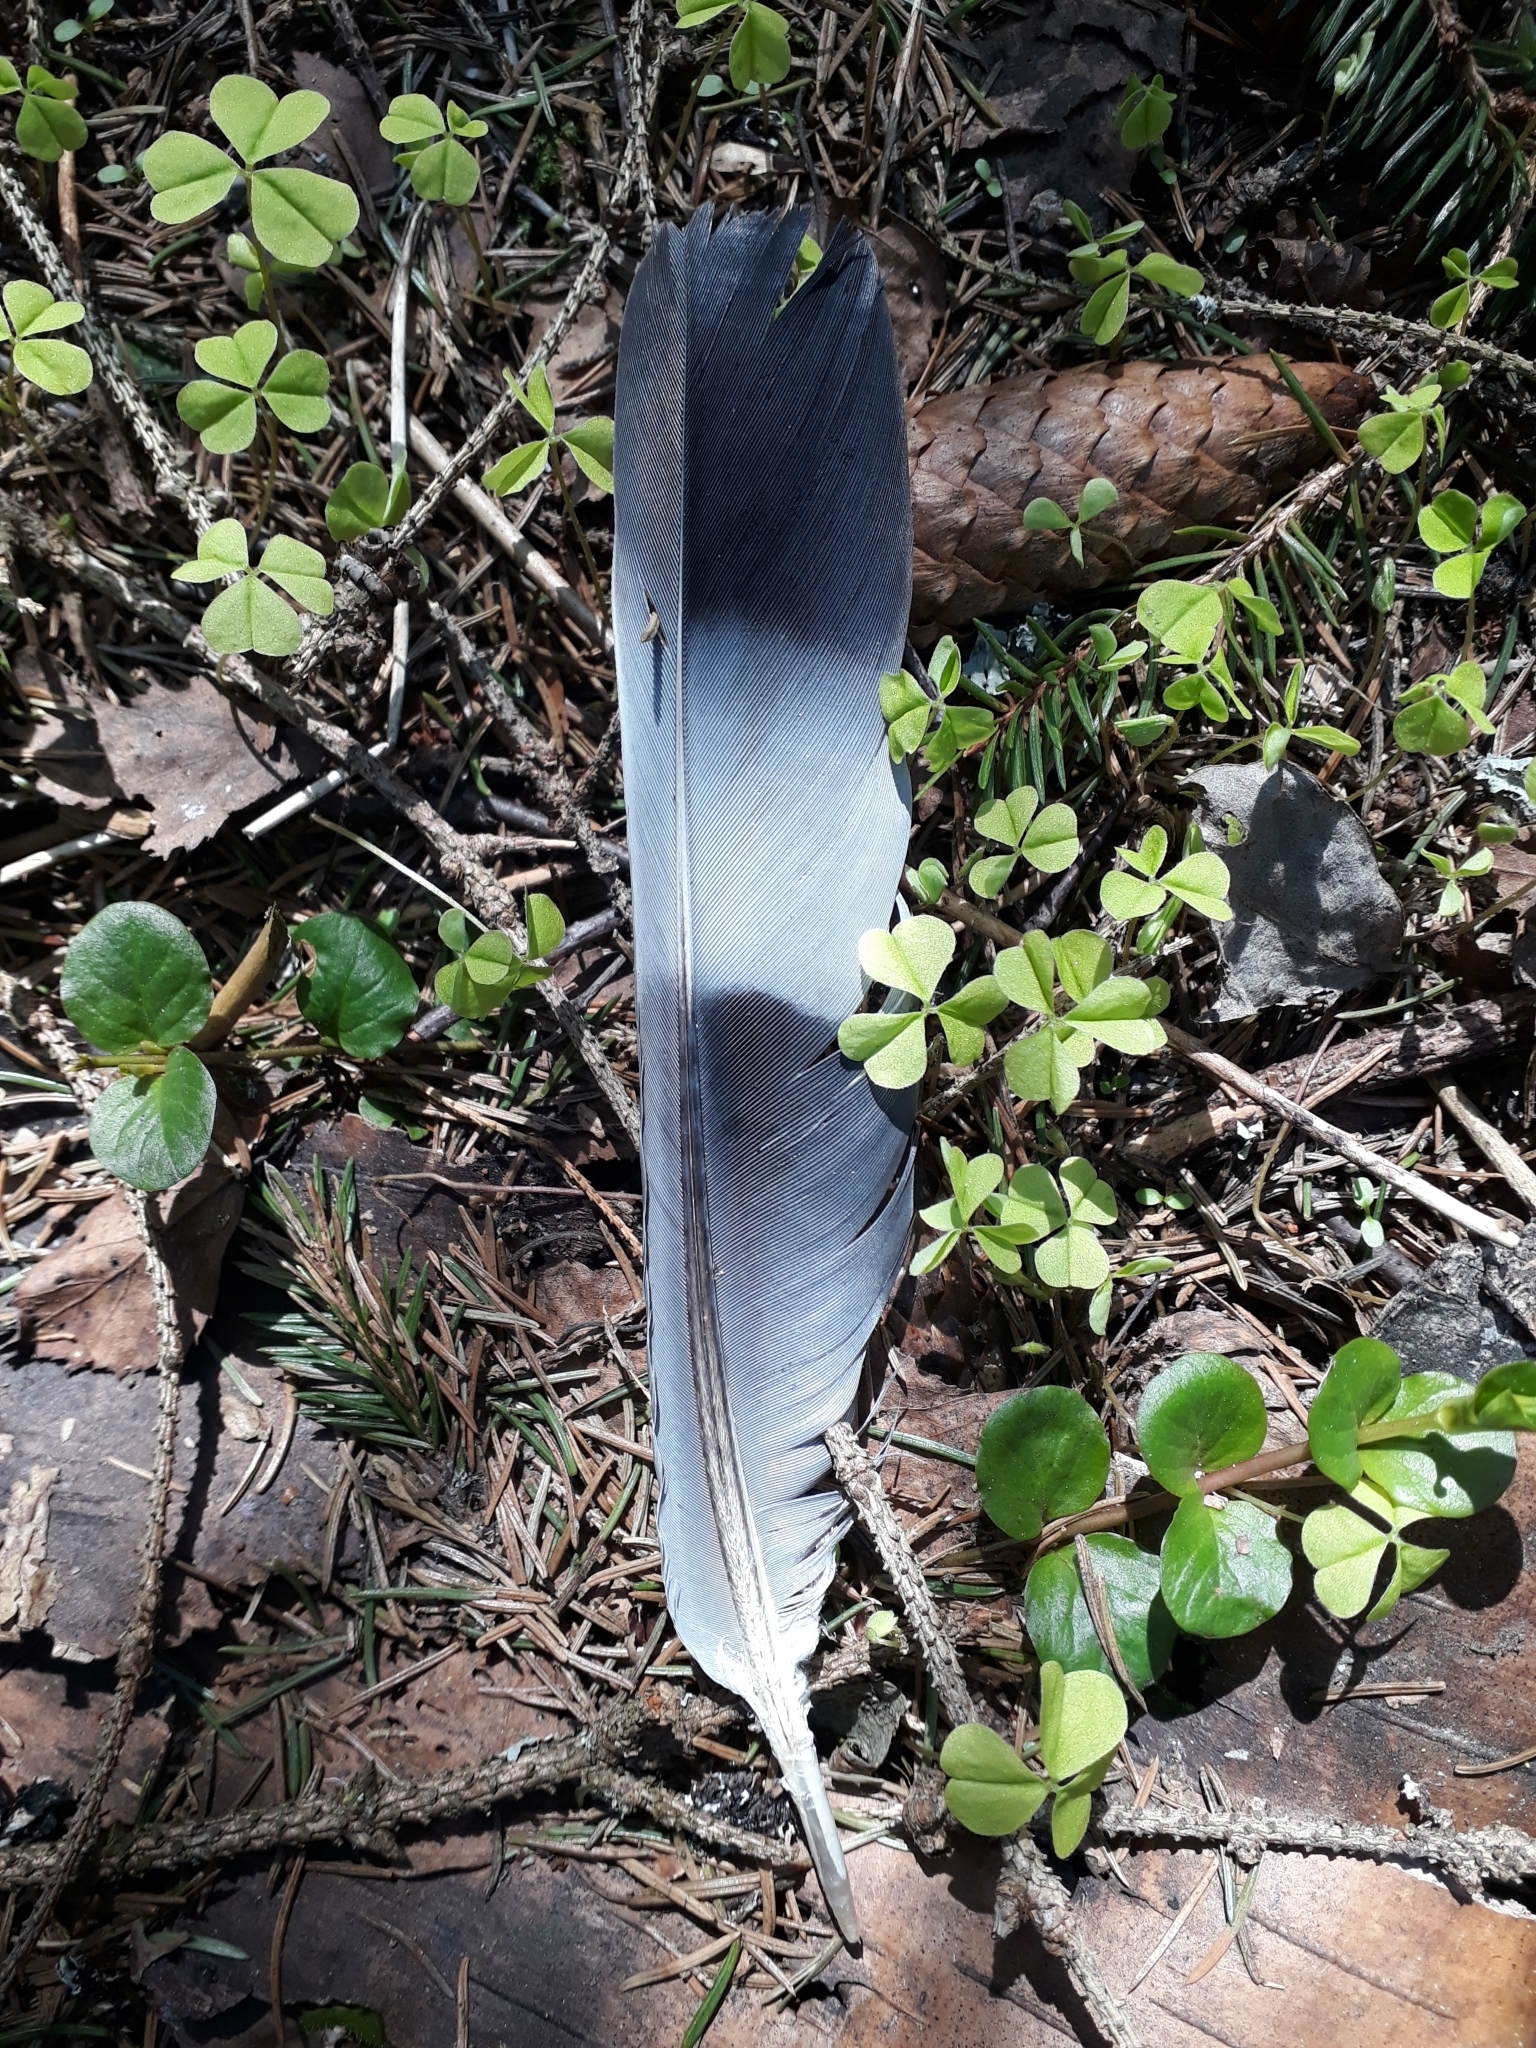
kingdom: Animalia
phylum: Chordata
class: Aves
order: Columbiformes
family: Columbidae
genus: Columba
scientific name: Columba palumbus
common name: Common wood pigeon
